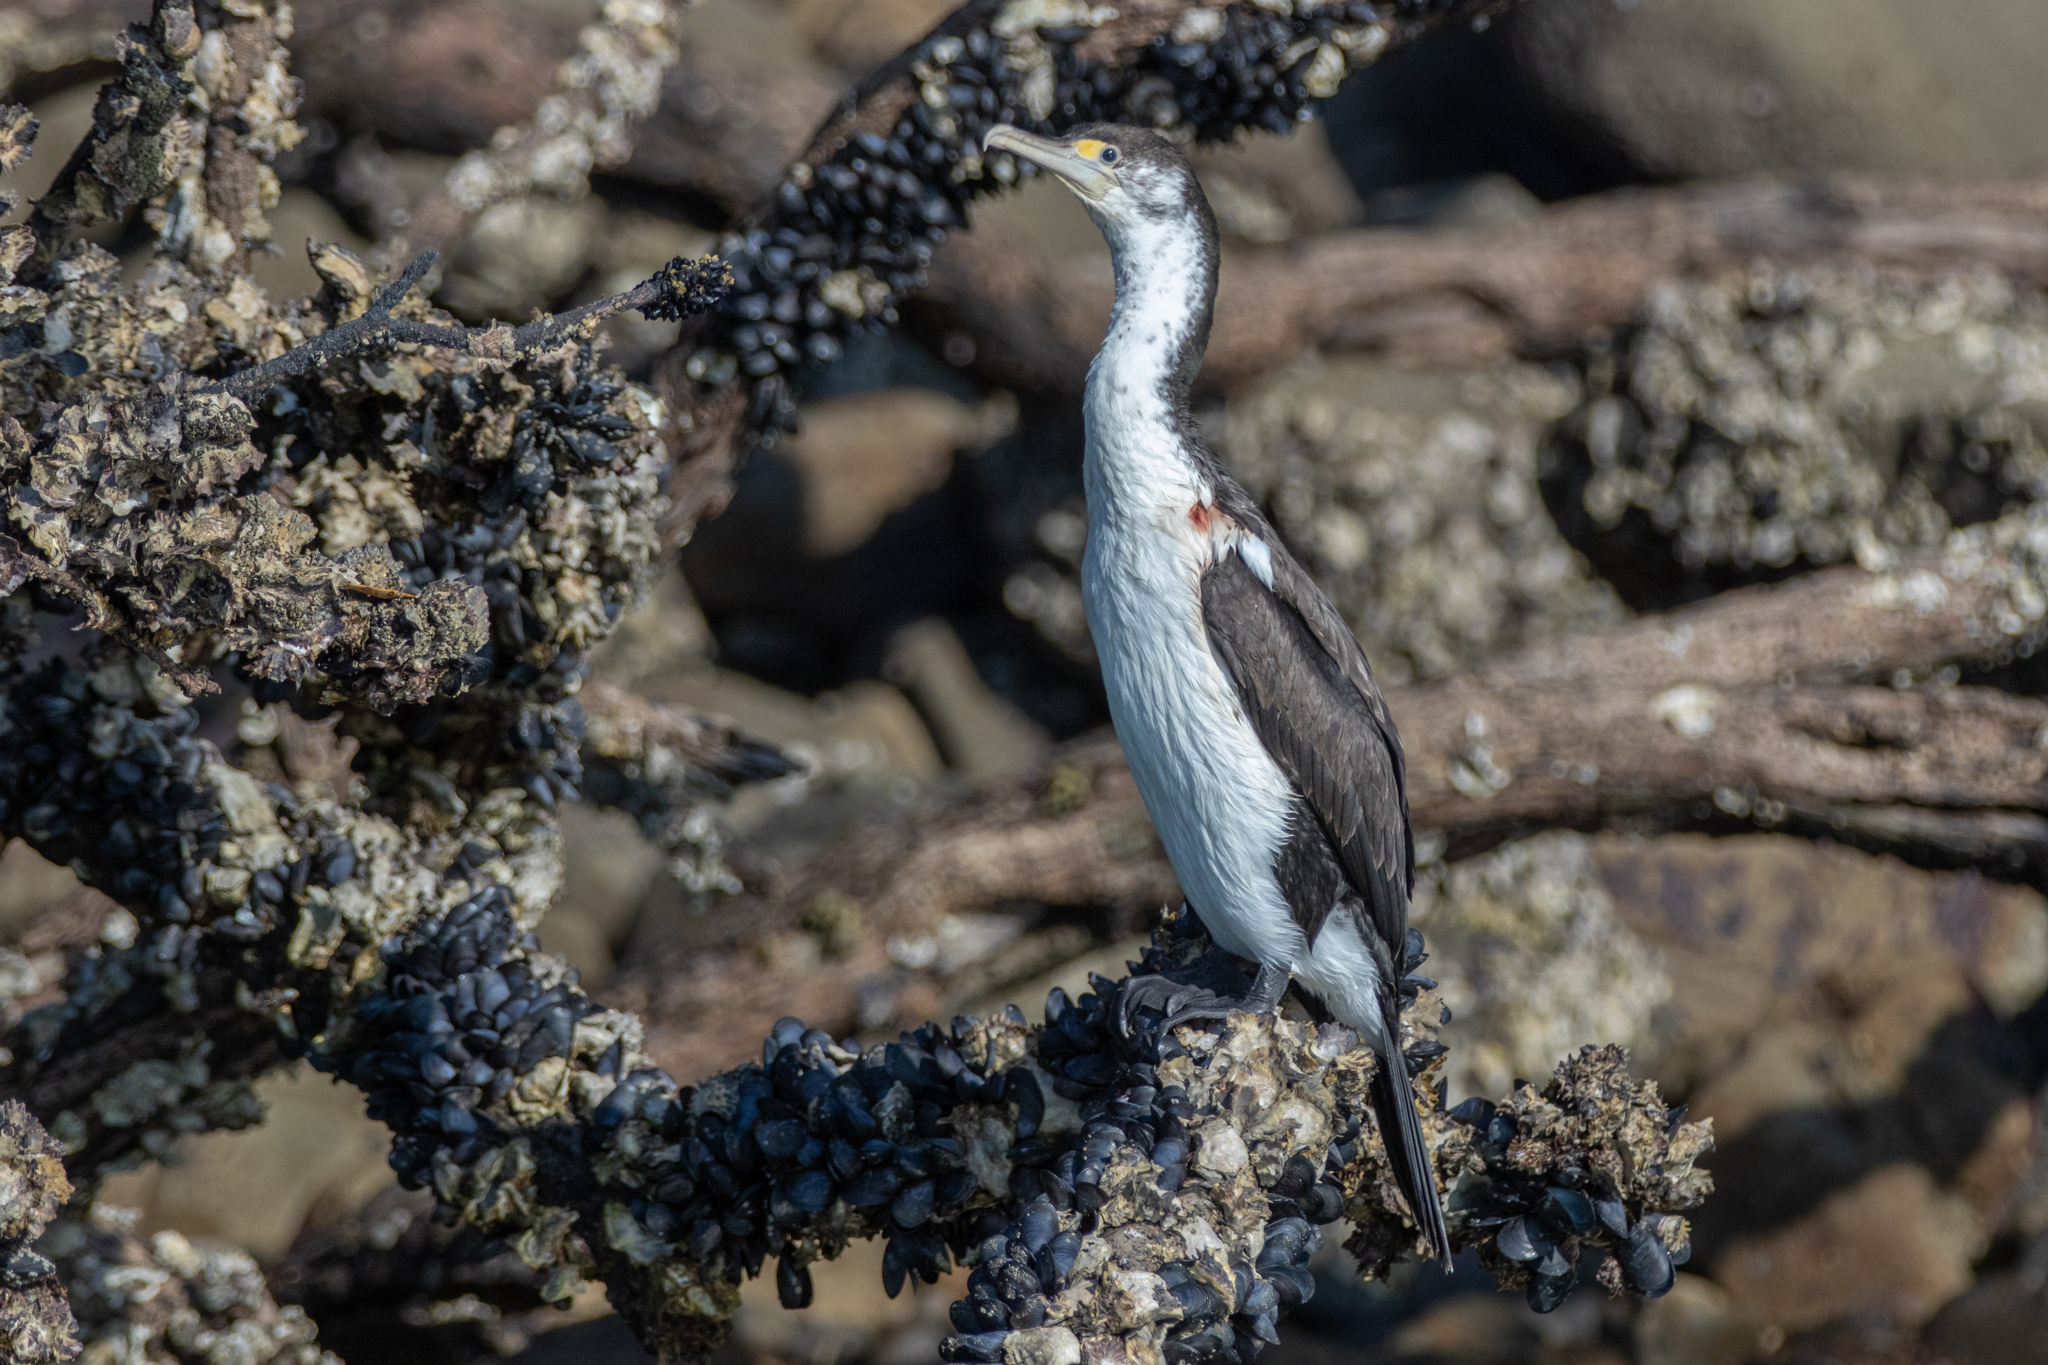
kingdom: Animalia
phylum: Chordata
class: Aves
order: Suliformes
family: Phalacrocoracidae
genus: Phalacrocorax
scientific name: Phalacrocorax varius
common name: Pied cormorant
